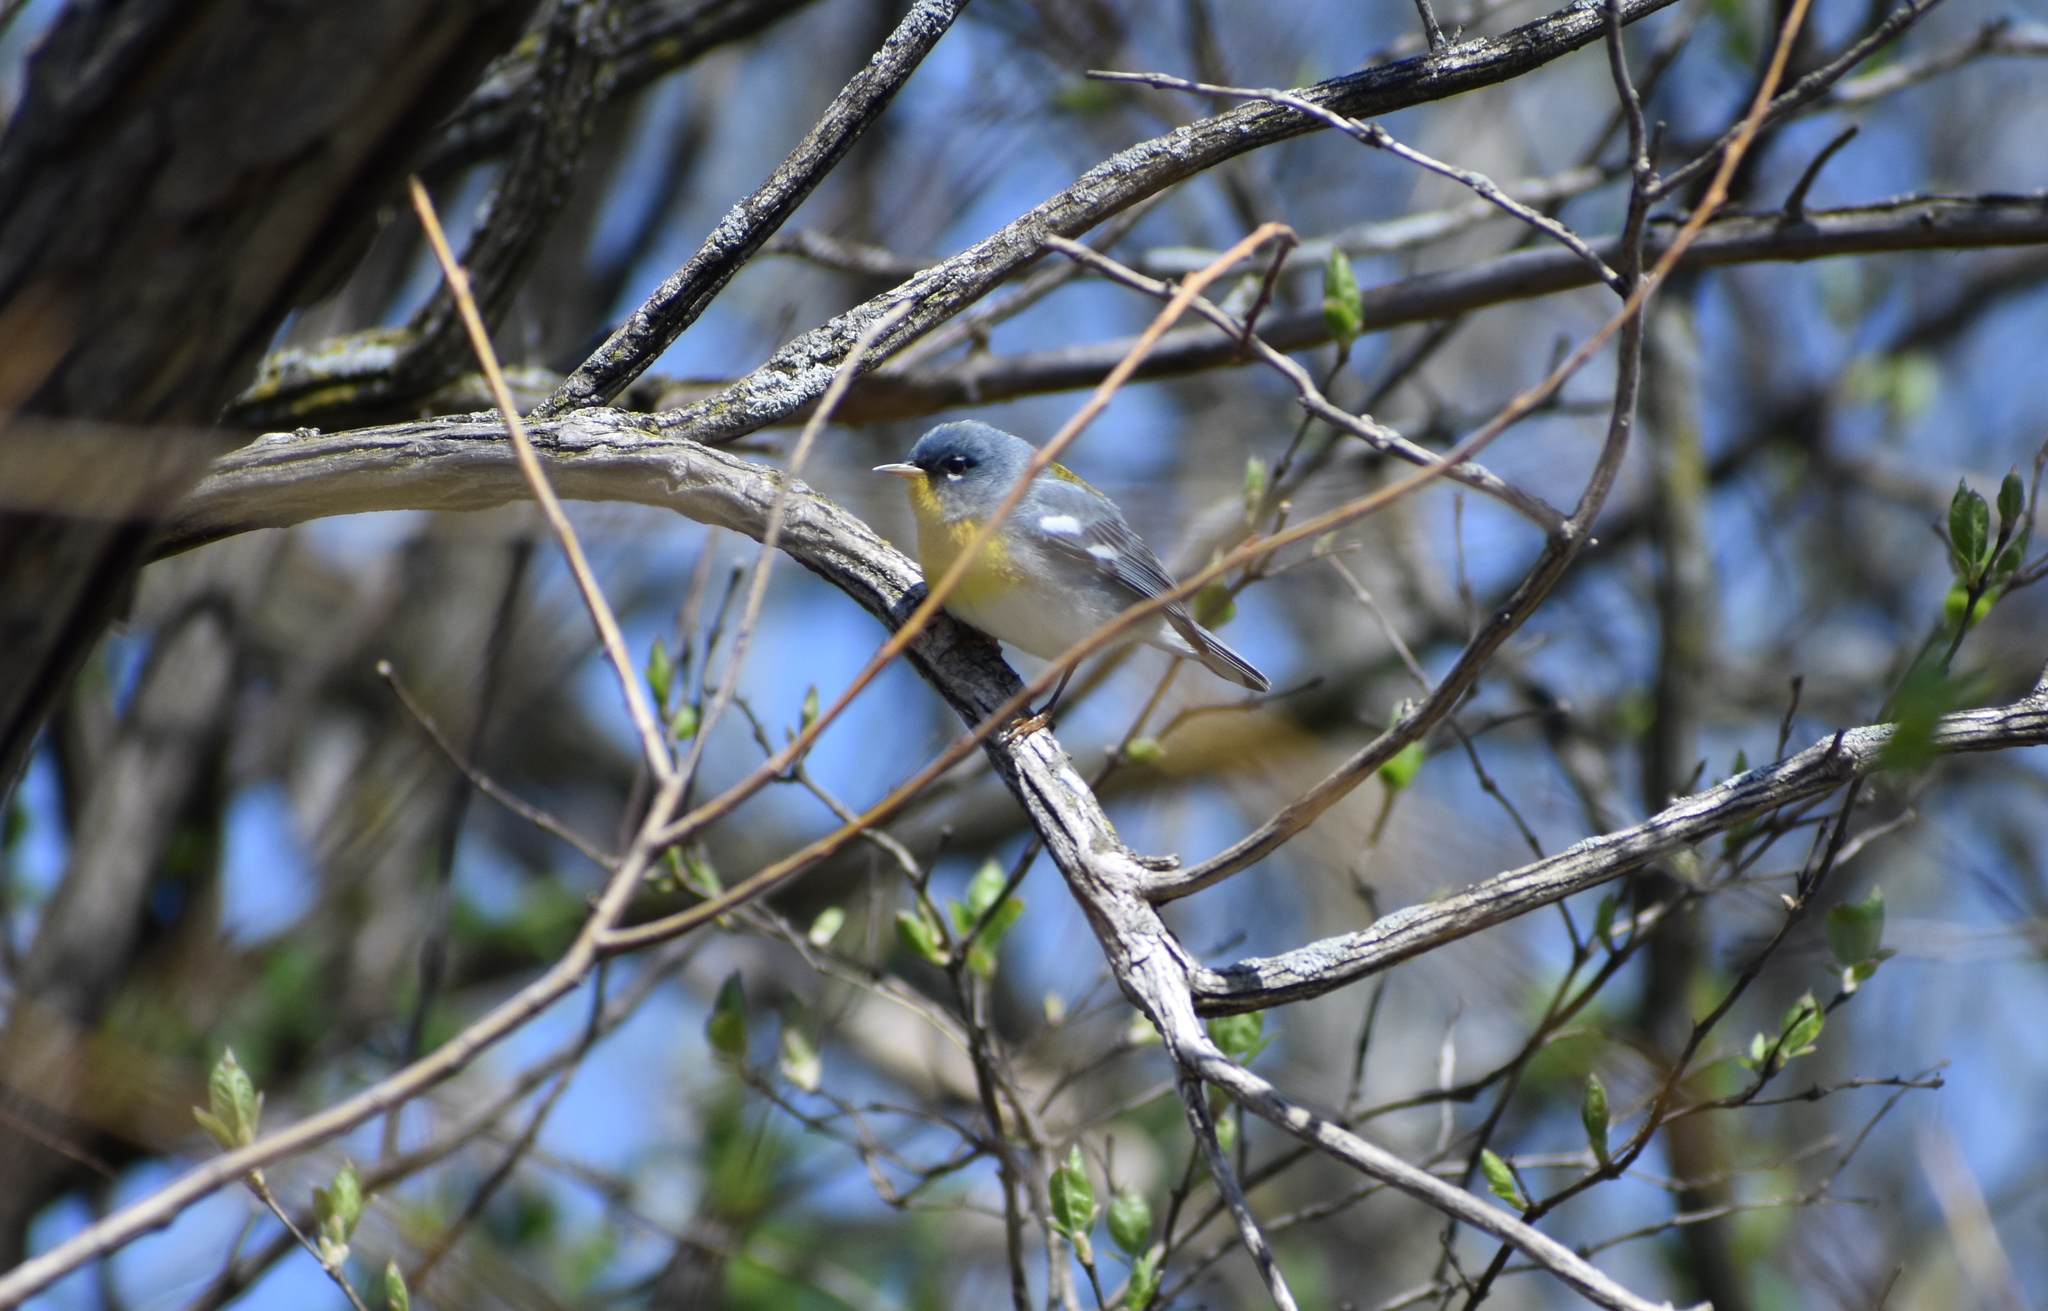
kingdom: Animalia
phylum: Chordata
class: Aves
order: Passeriformes
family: Parulidae
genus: Setophaga
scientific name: Setophaga americana
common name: Northern parula
